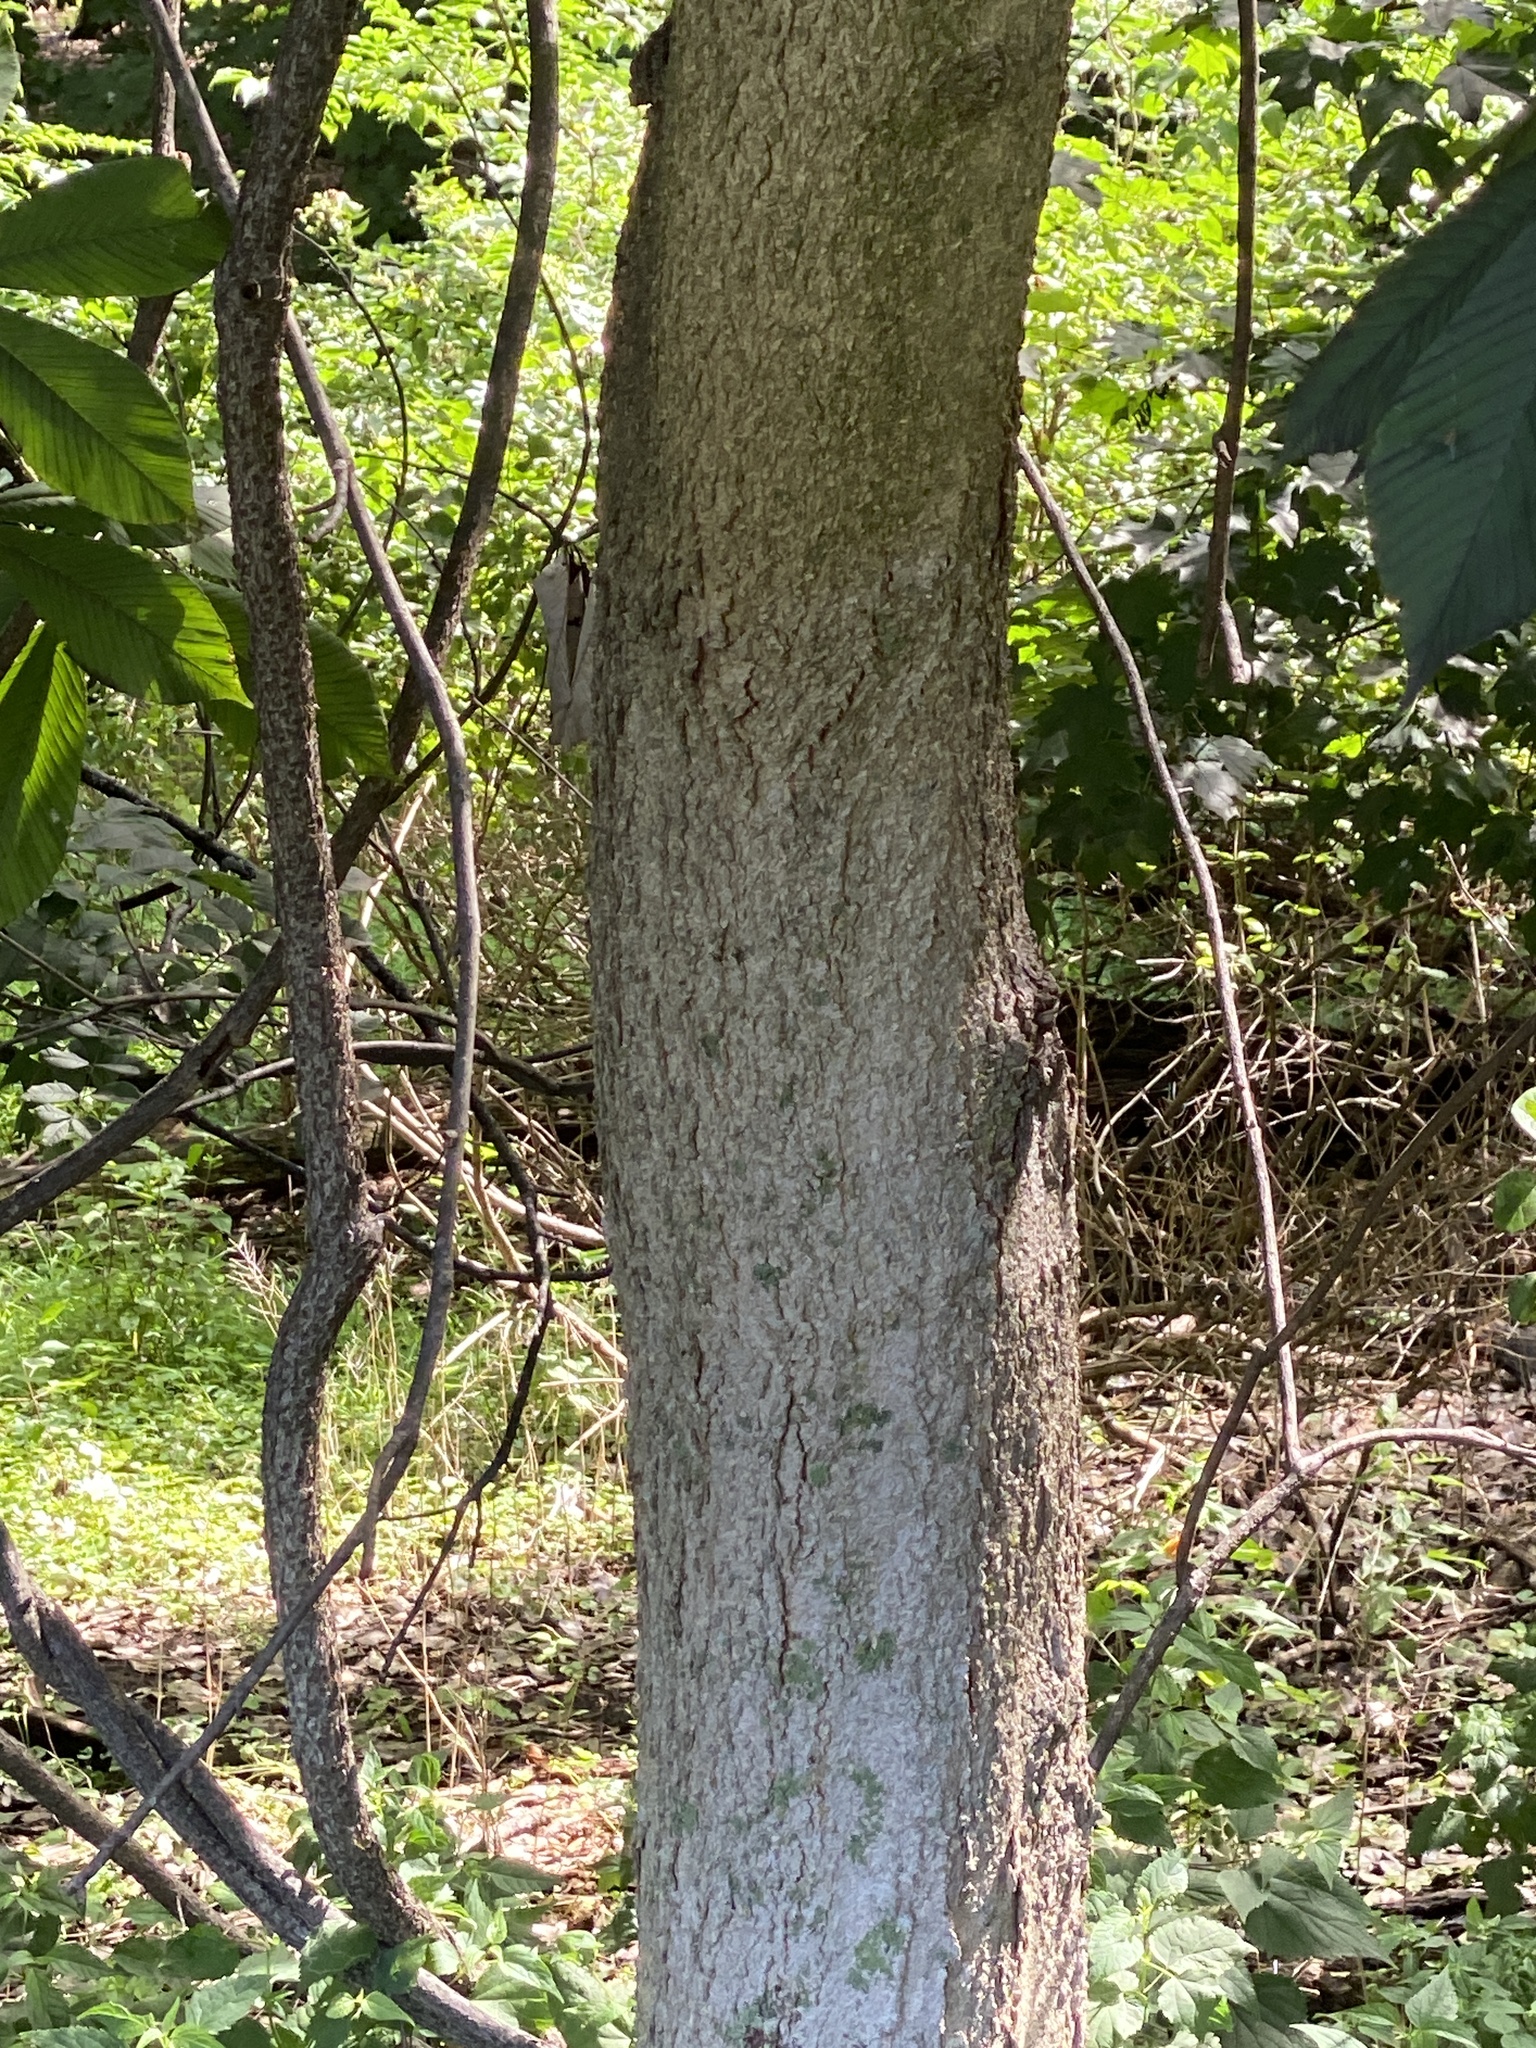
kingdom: Plantae
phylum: Tracheophyta
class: Magnoliopsida
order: Sapindales
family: Sapindaceae
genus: Aesculus
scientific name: Aesculus flava
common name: Yellow buckeye
